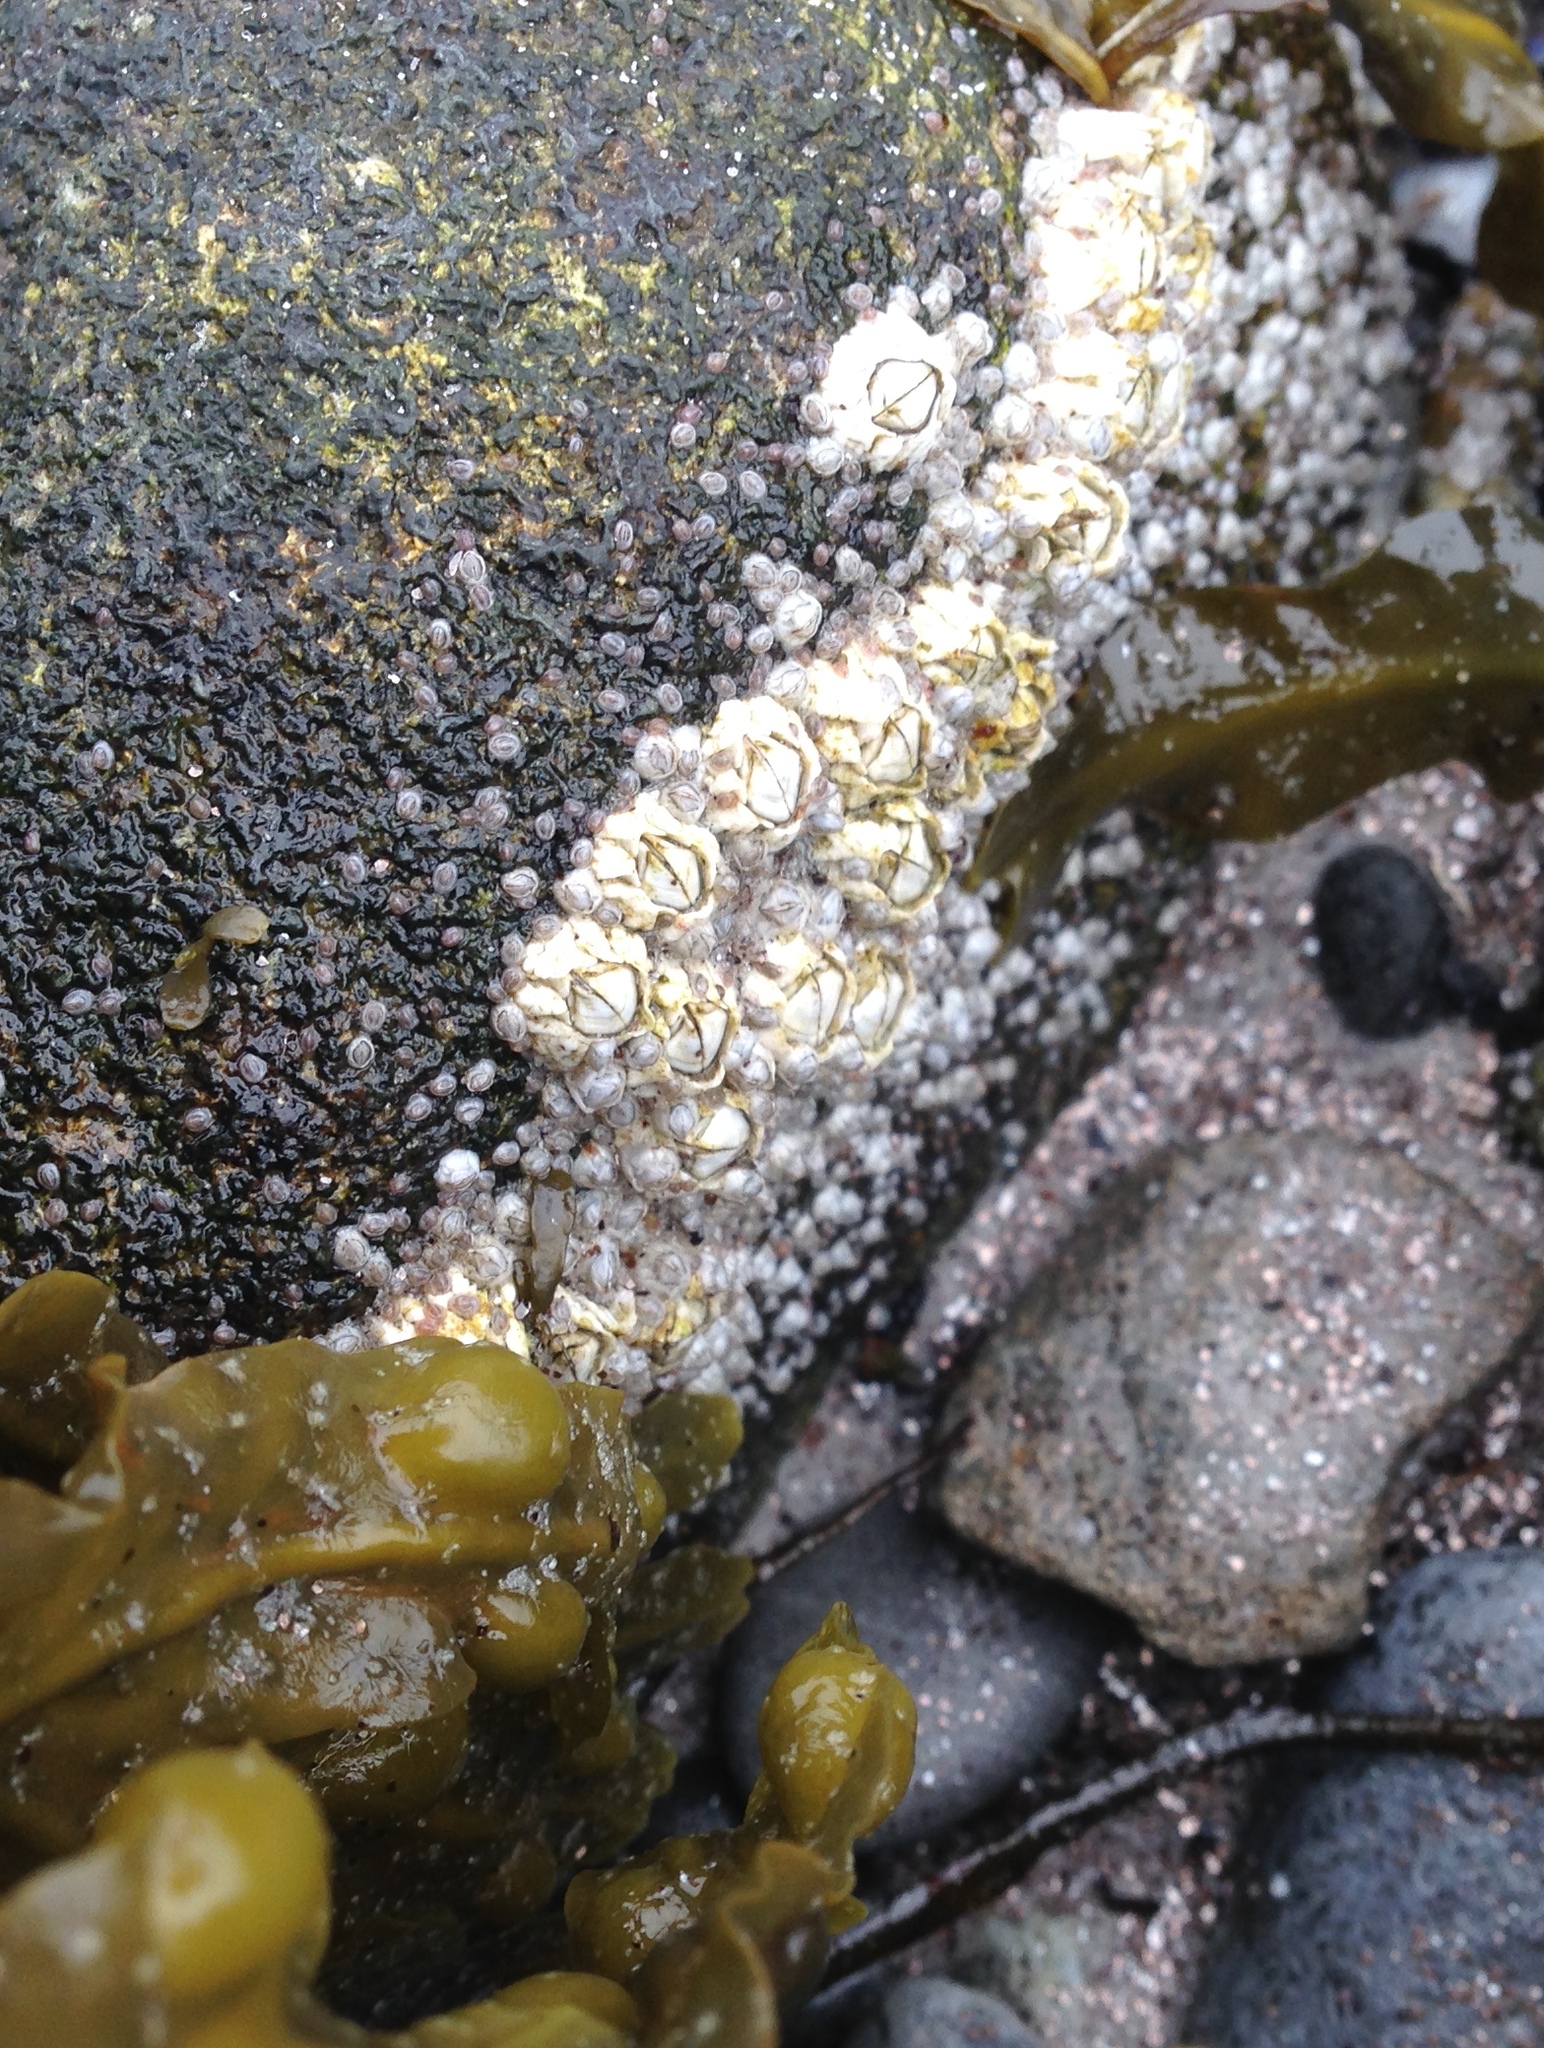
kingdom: Animalia
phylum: Arthropoda
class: Maxillopoda
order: Sessilia
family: Archaeobalanidae
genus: Semibalanus
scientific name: Semibalanus balanoides
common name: Acorn barnacle
